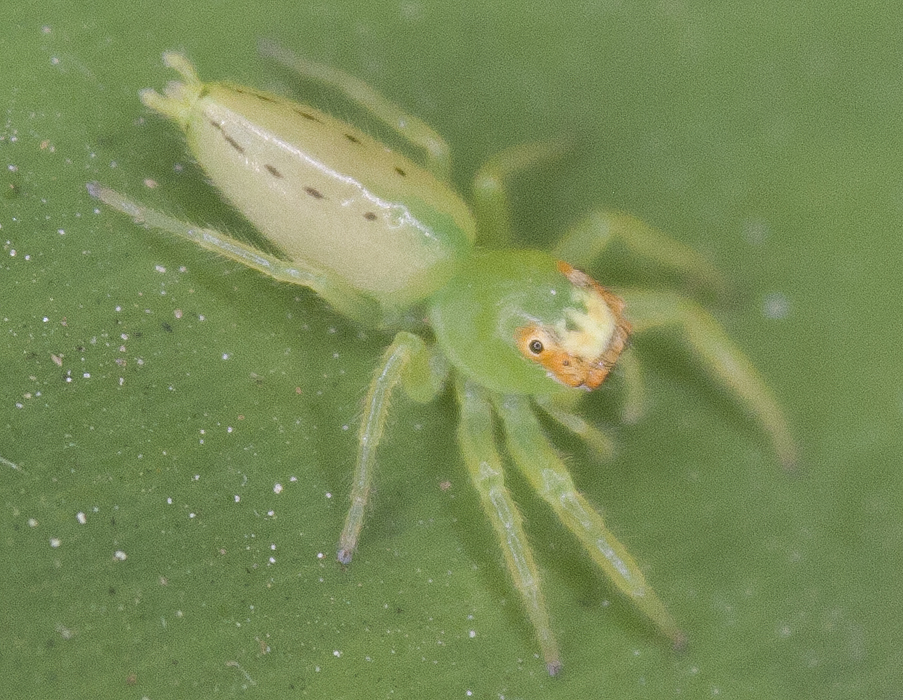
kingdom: Animalia
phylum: Arthropoda
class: Arachnida
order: Araneae
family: Salticidae
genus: Mopsus
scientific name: Mopsus mormon
